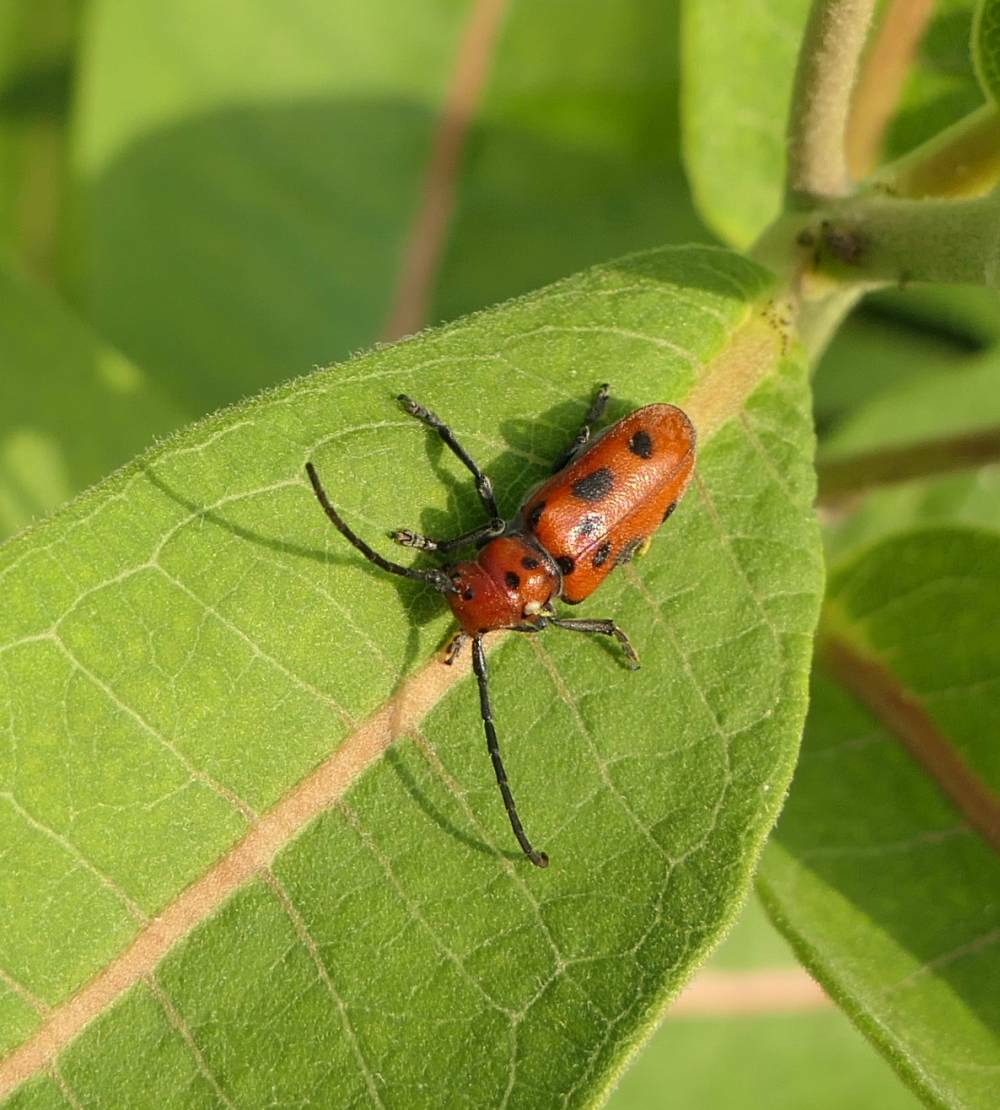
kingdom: Animalia
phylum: Arthropoda
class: Insecta
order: Coleoptera
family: Cerambycidae
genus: Tetraopes
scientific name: Tetraopes tetrophthalmus
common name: Red milkweed beetle
